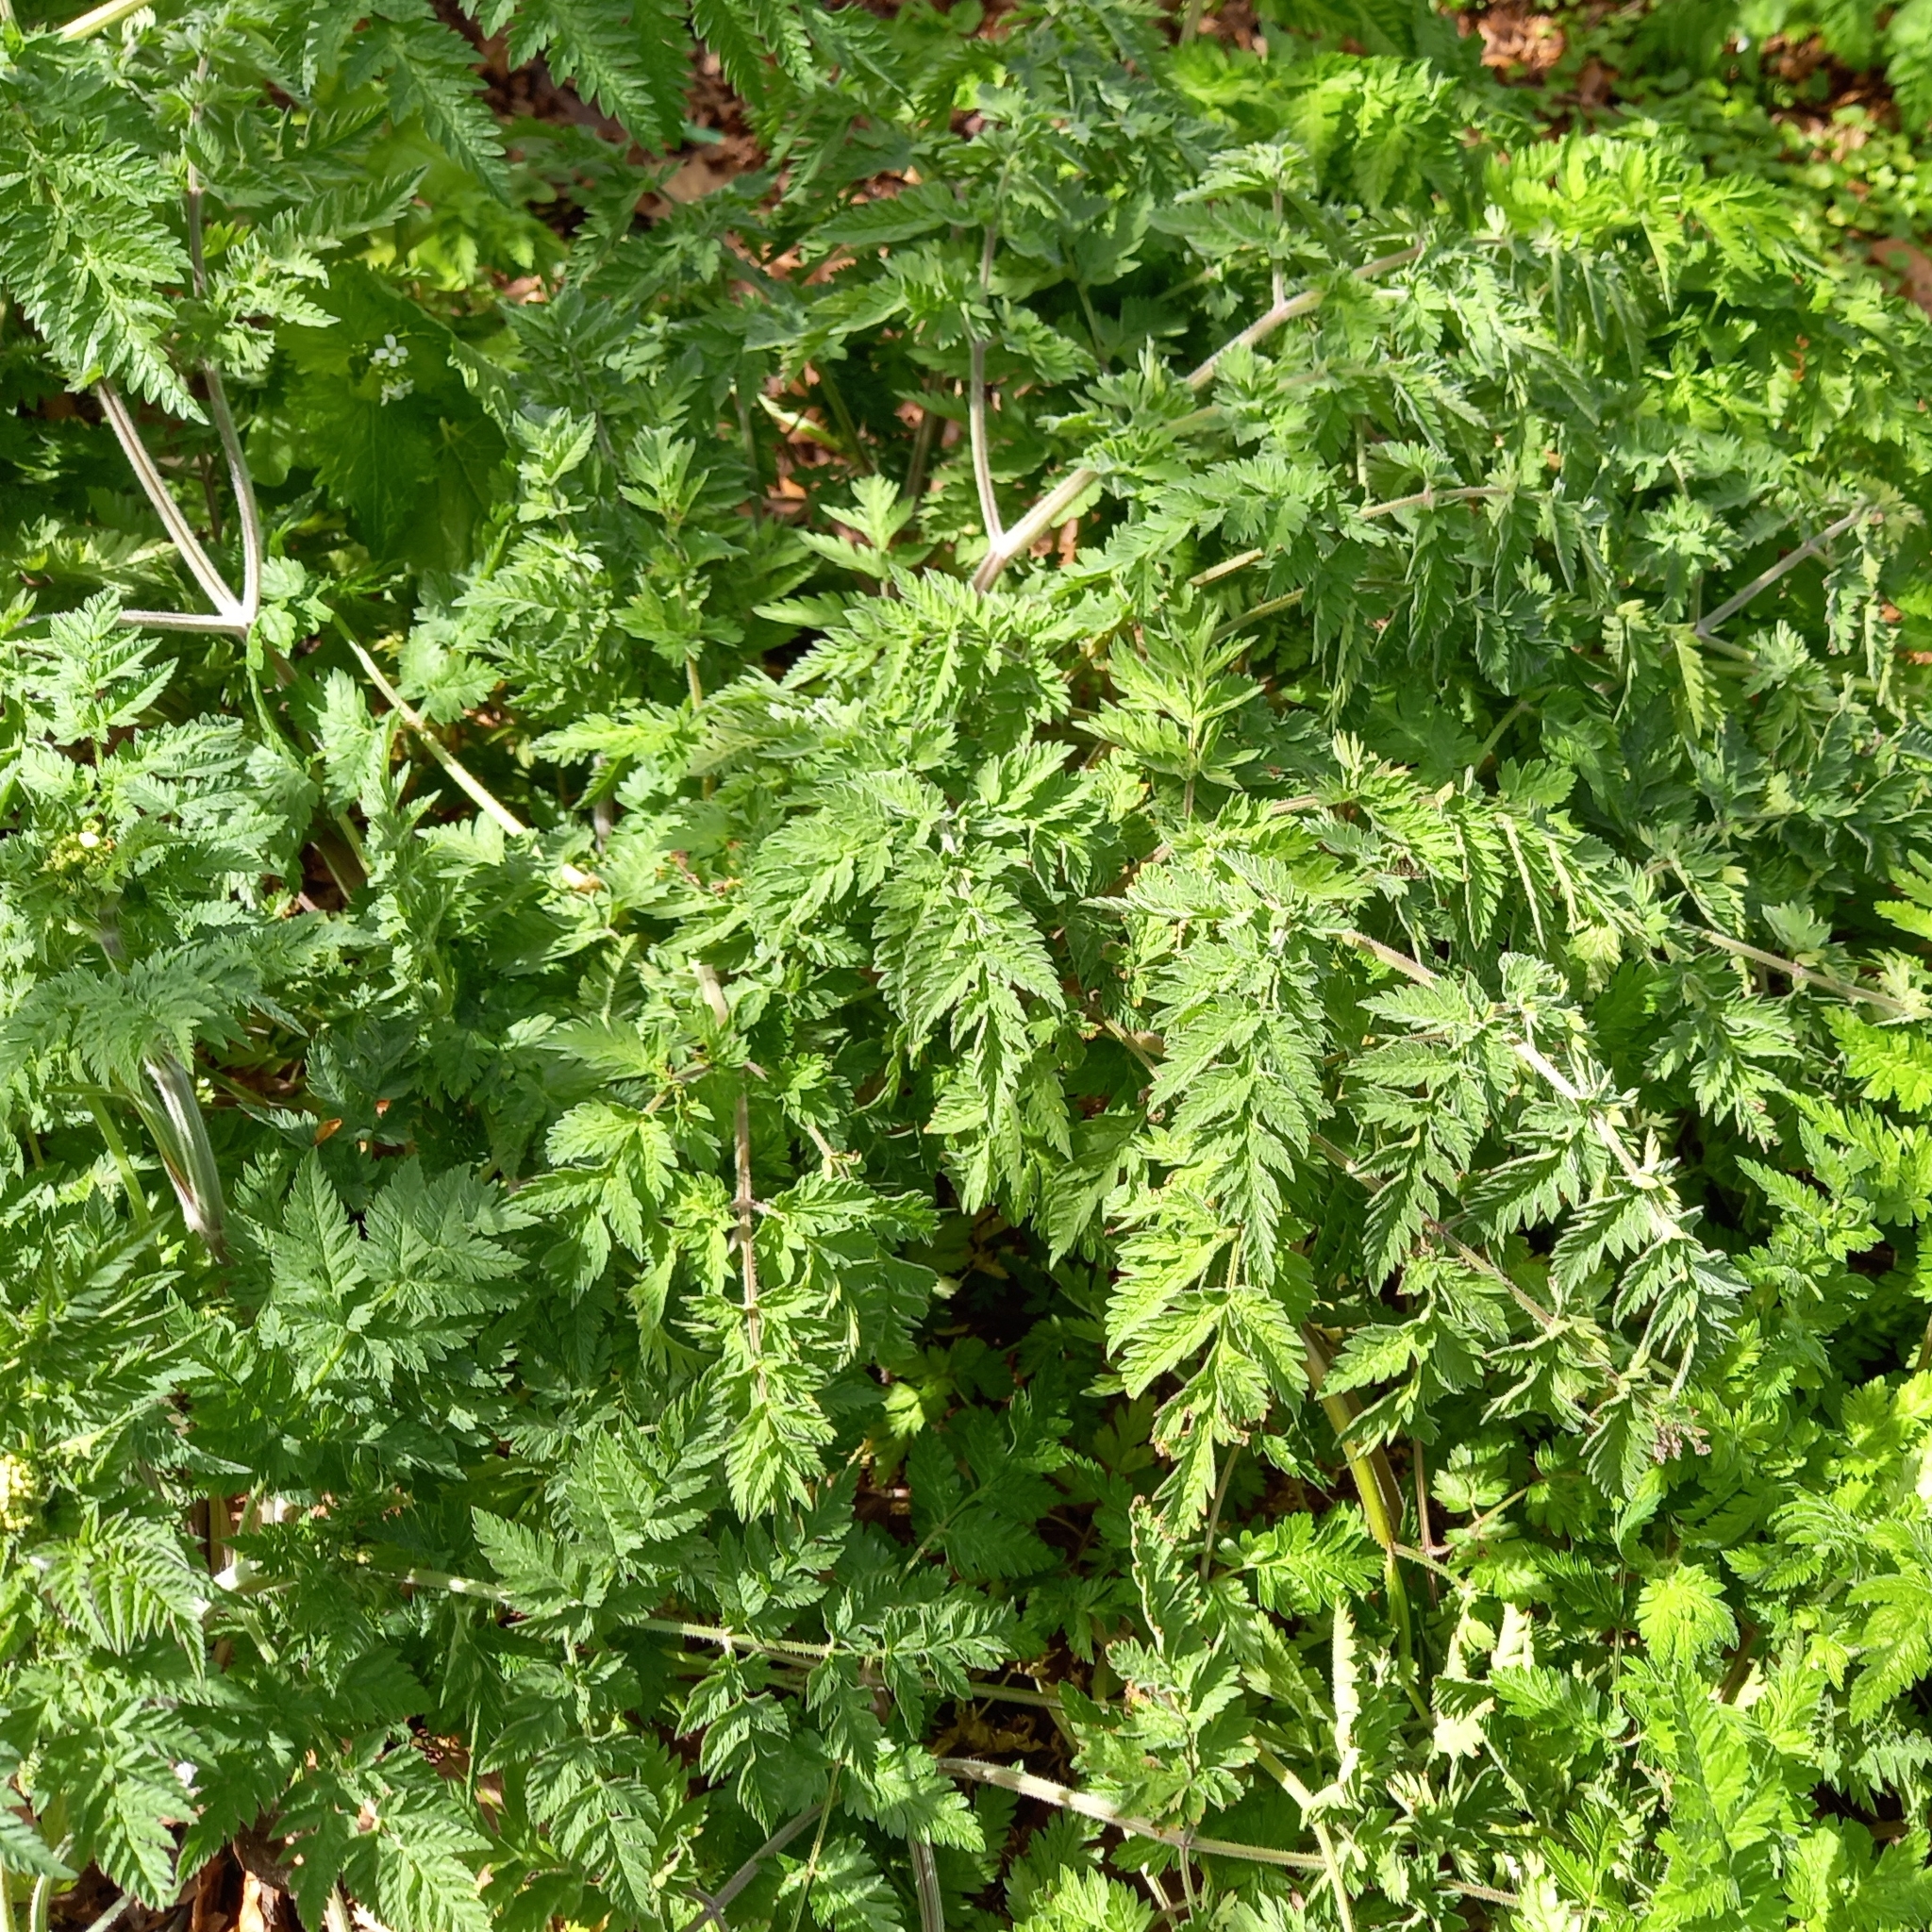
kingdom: Plantae
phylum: Tracheophyta
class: Magnoliopsida
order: Apiales
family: Apiaceae
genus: Anthriscus
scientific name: Anthriscus sylvestris
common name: Cow parsley
